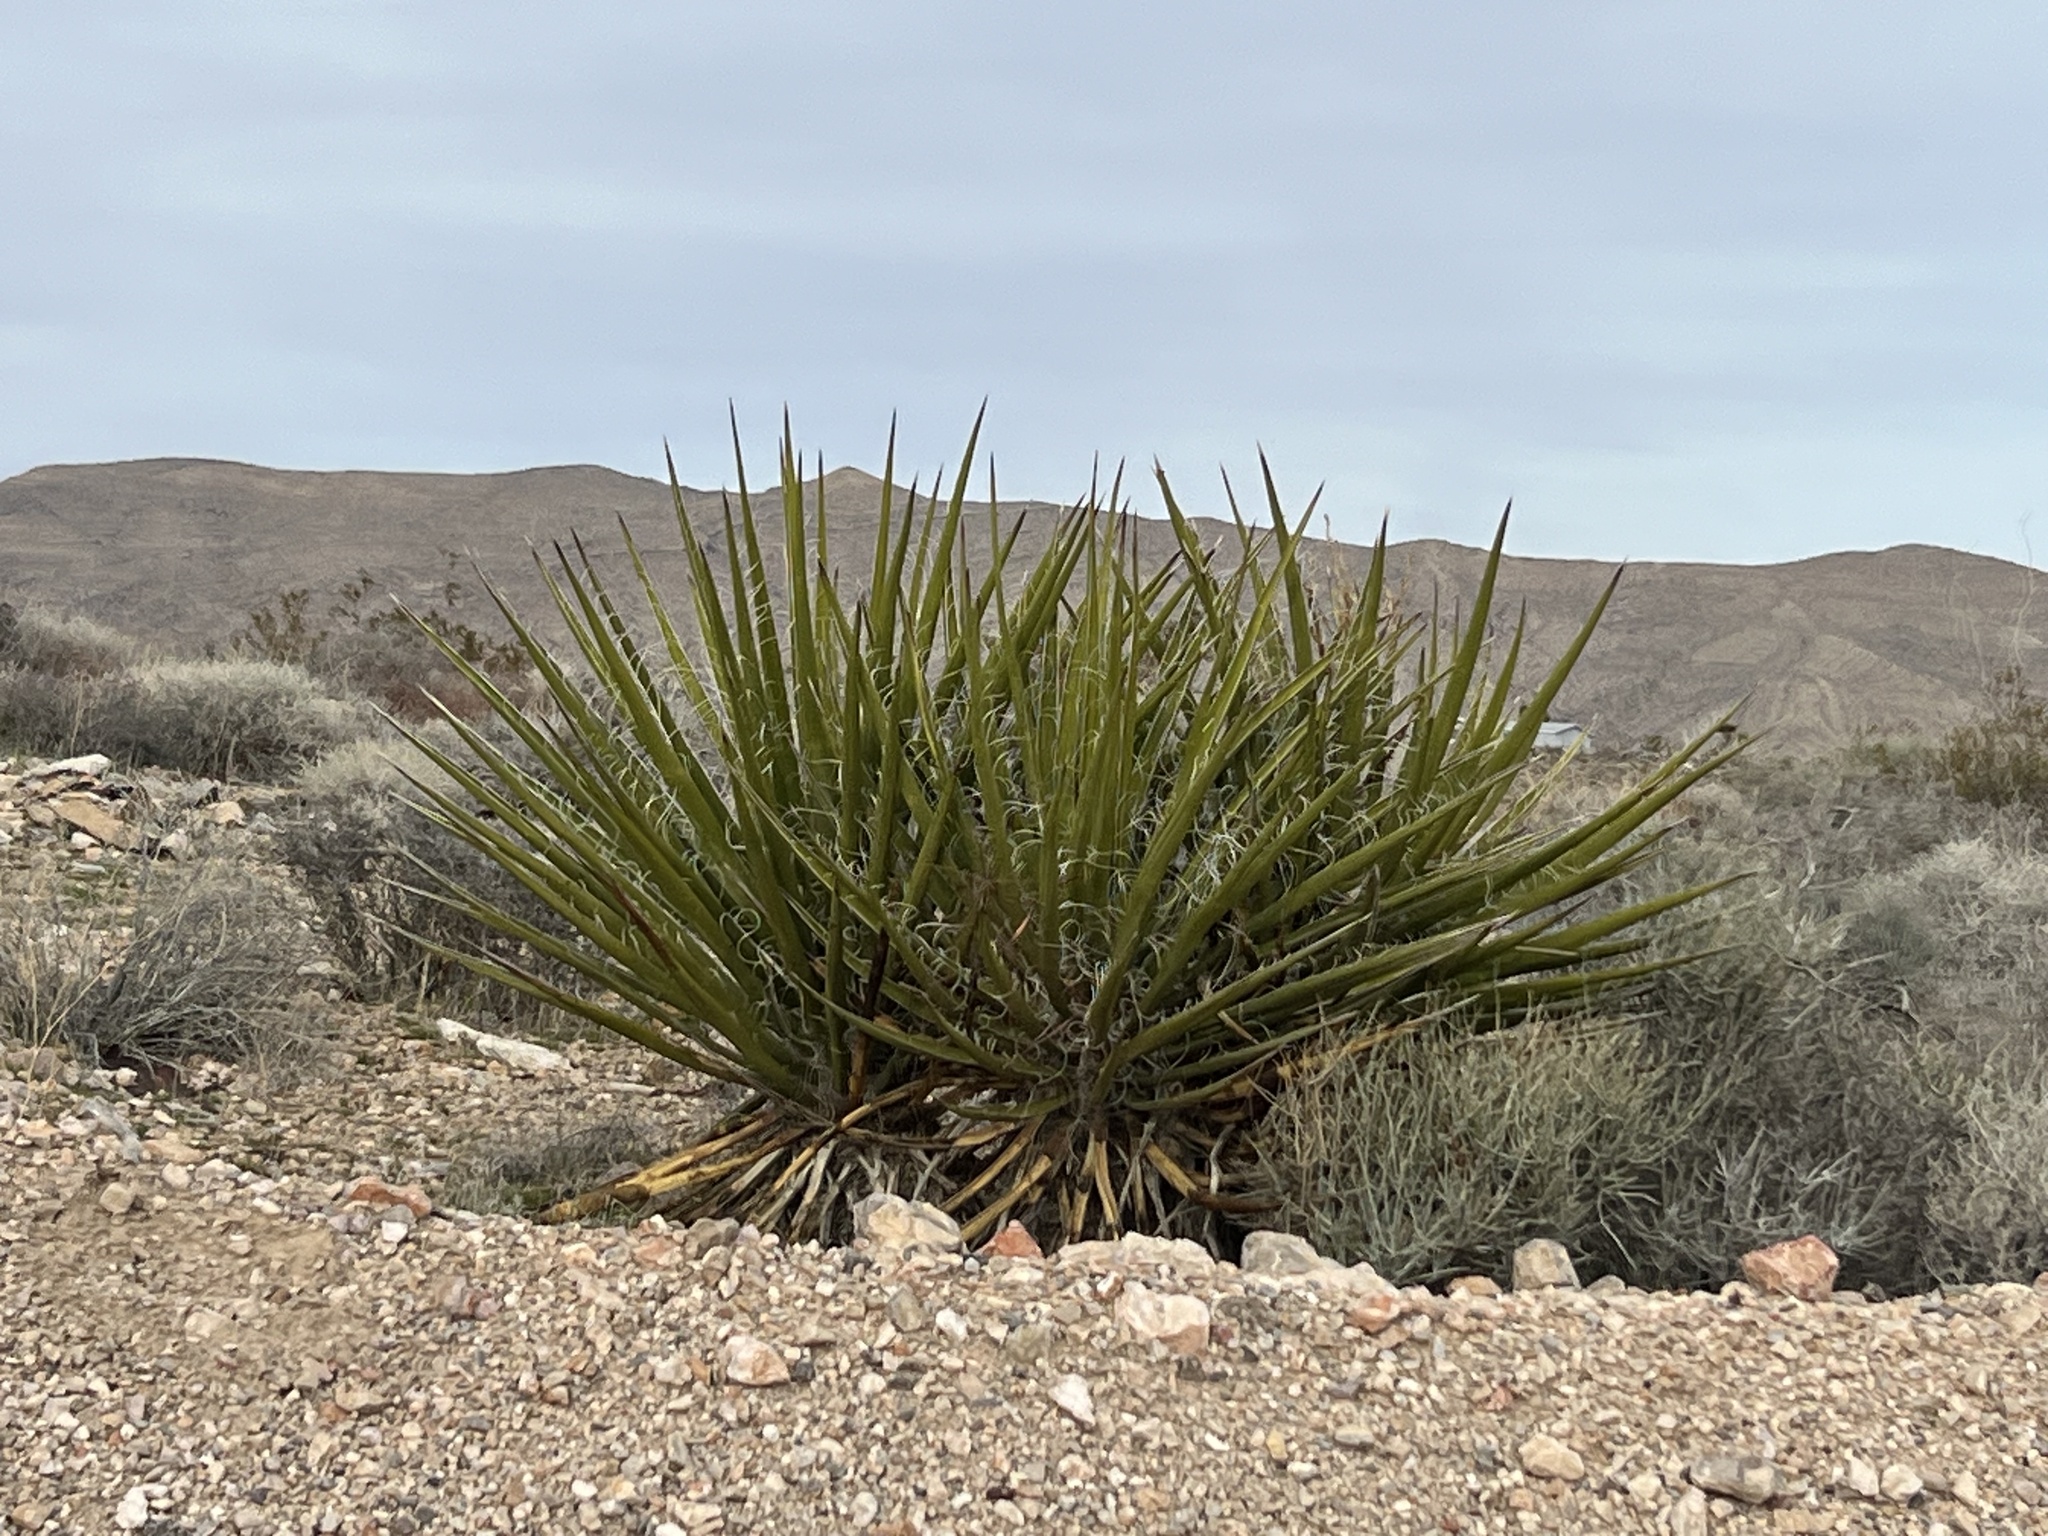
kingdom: Plantae
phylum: Tracheophyta
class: Liliopsida
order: Asparagales
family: Asparagaceae
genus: Yucca
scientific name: Yucca schidigera
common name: Mojave yucca
